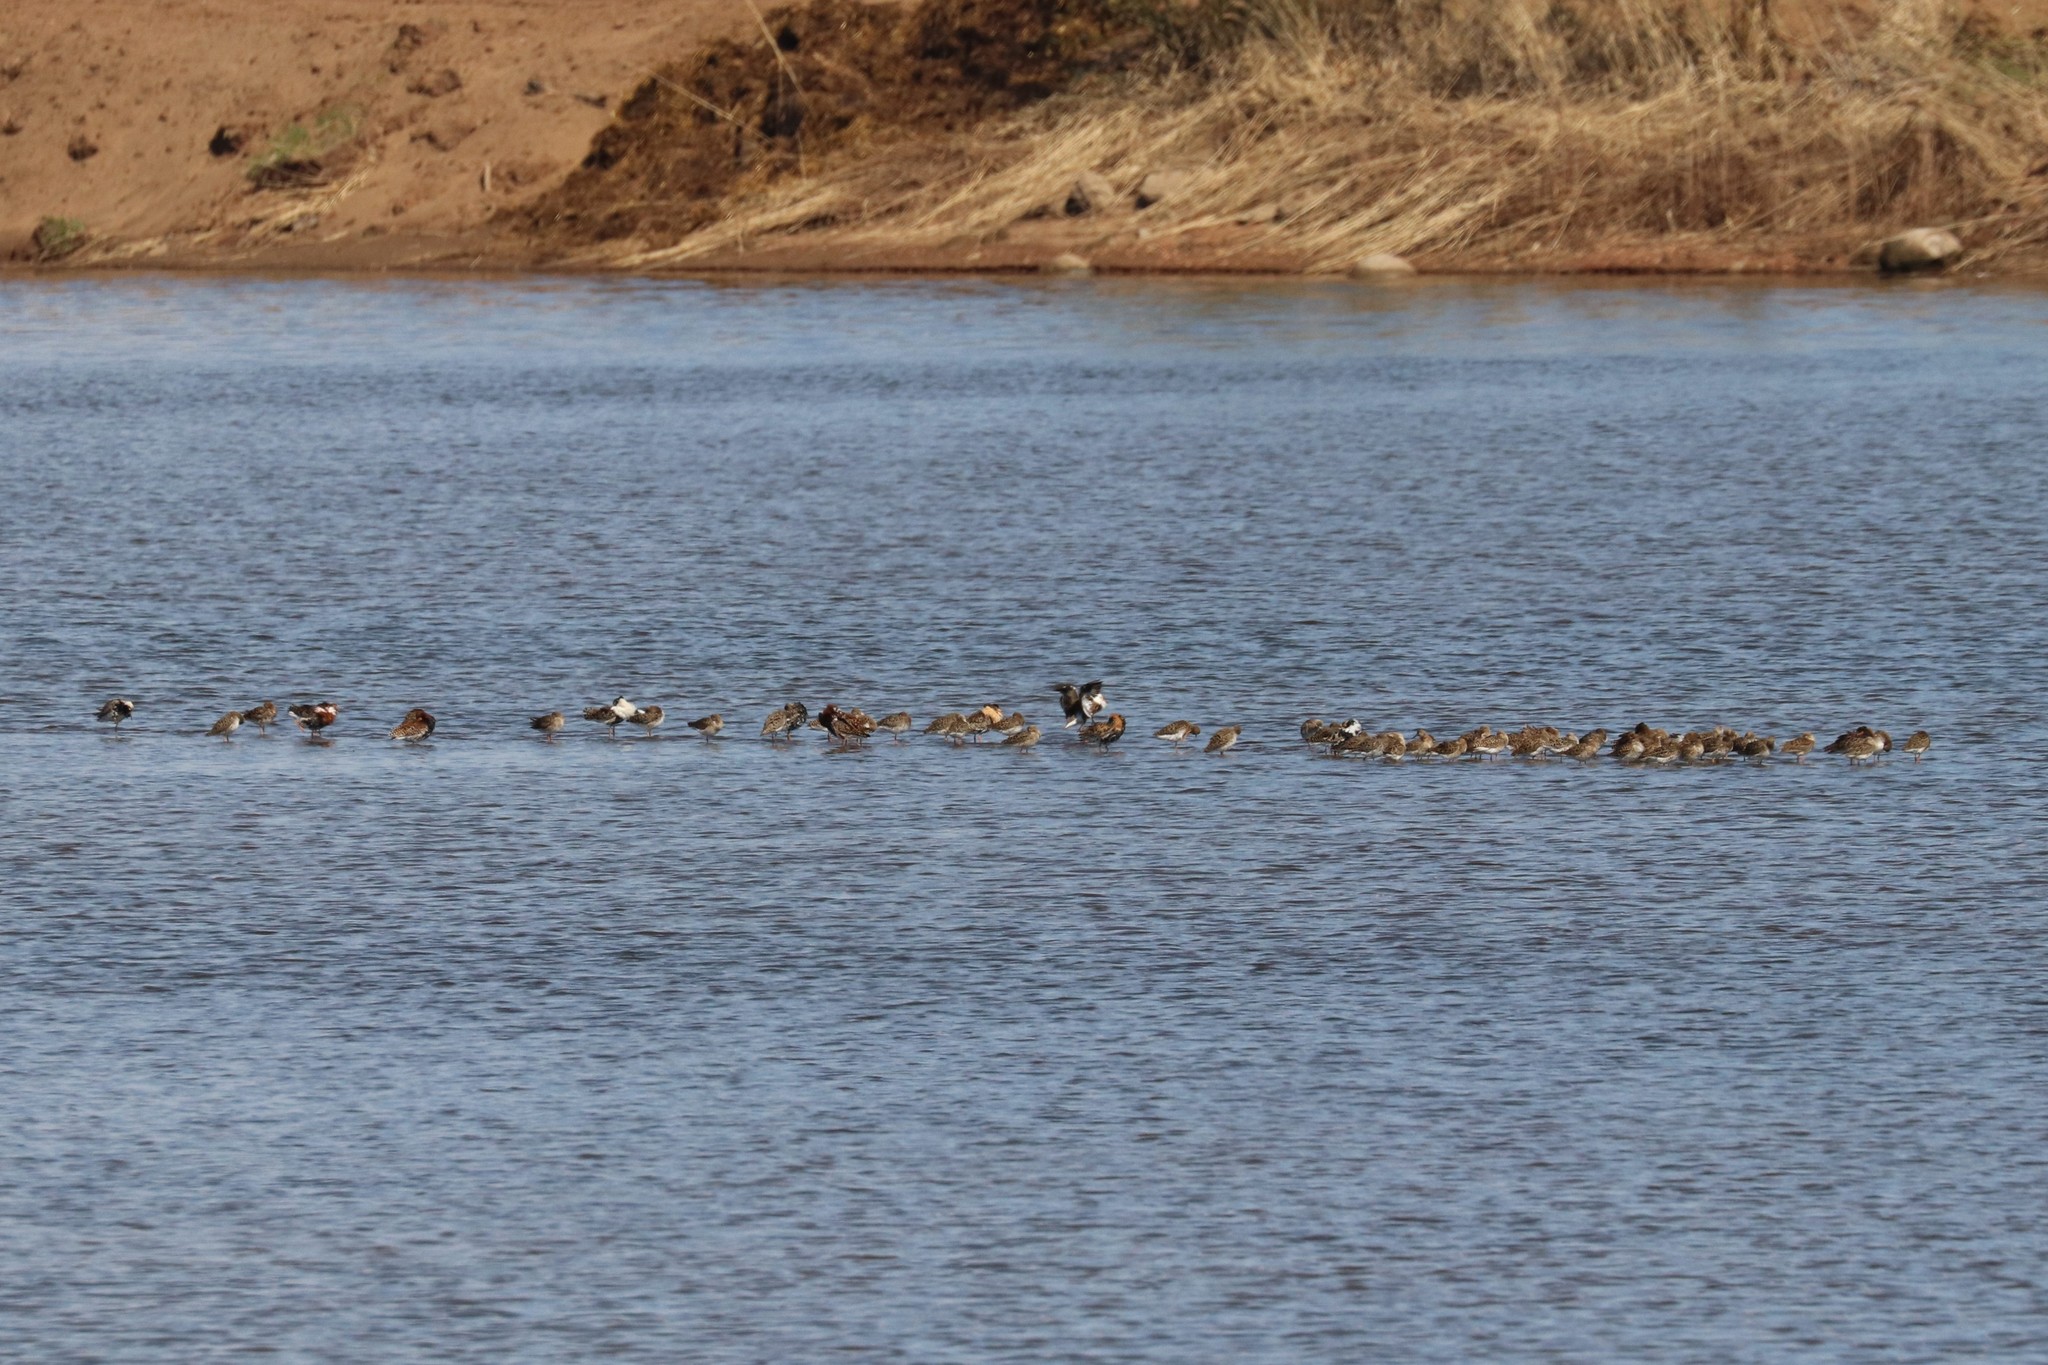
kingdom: Animalia
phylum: Chordata
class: Aves
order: Charadriiformes
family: Scolopacidae
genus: Calidris
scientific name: Calidris pugnax
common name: Ruff
